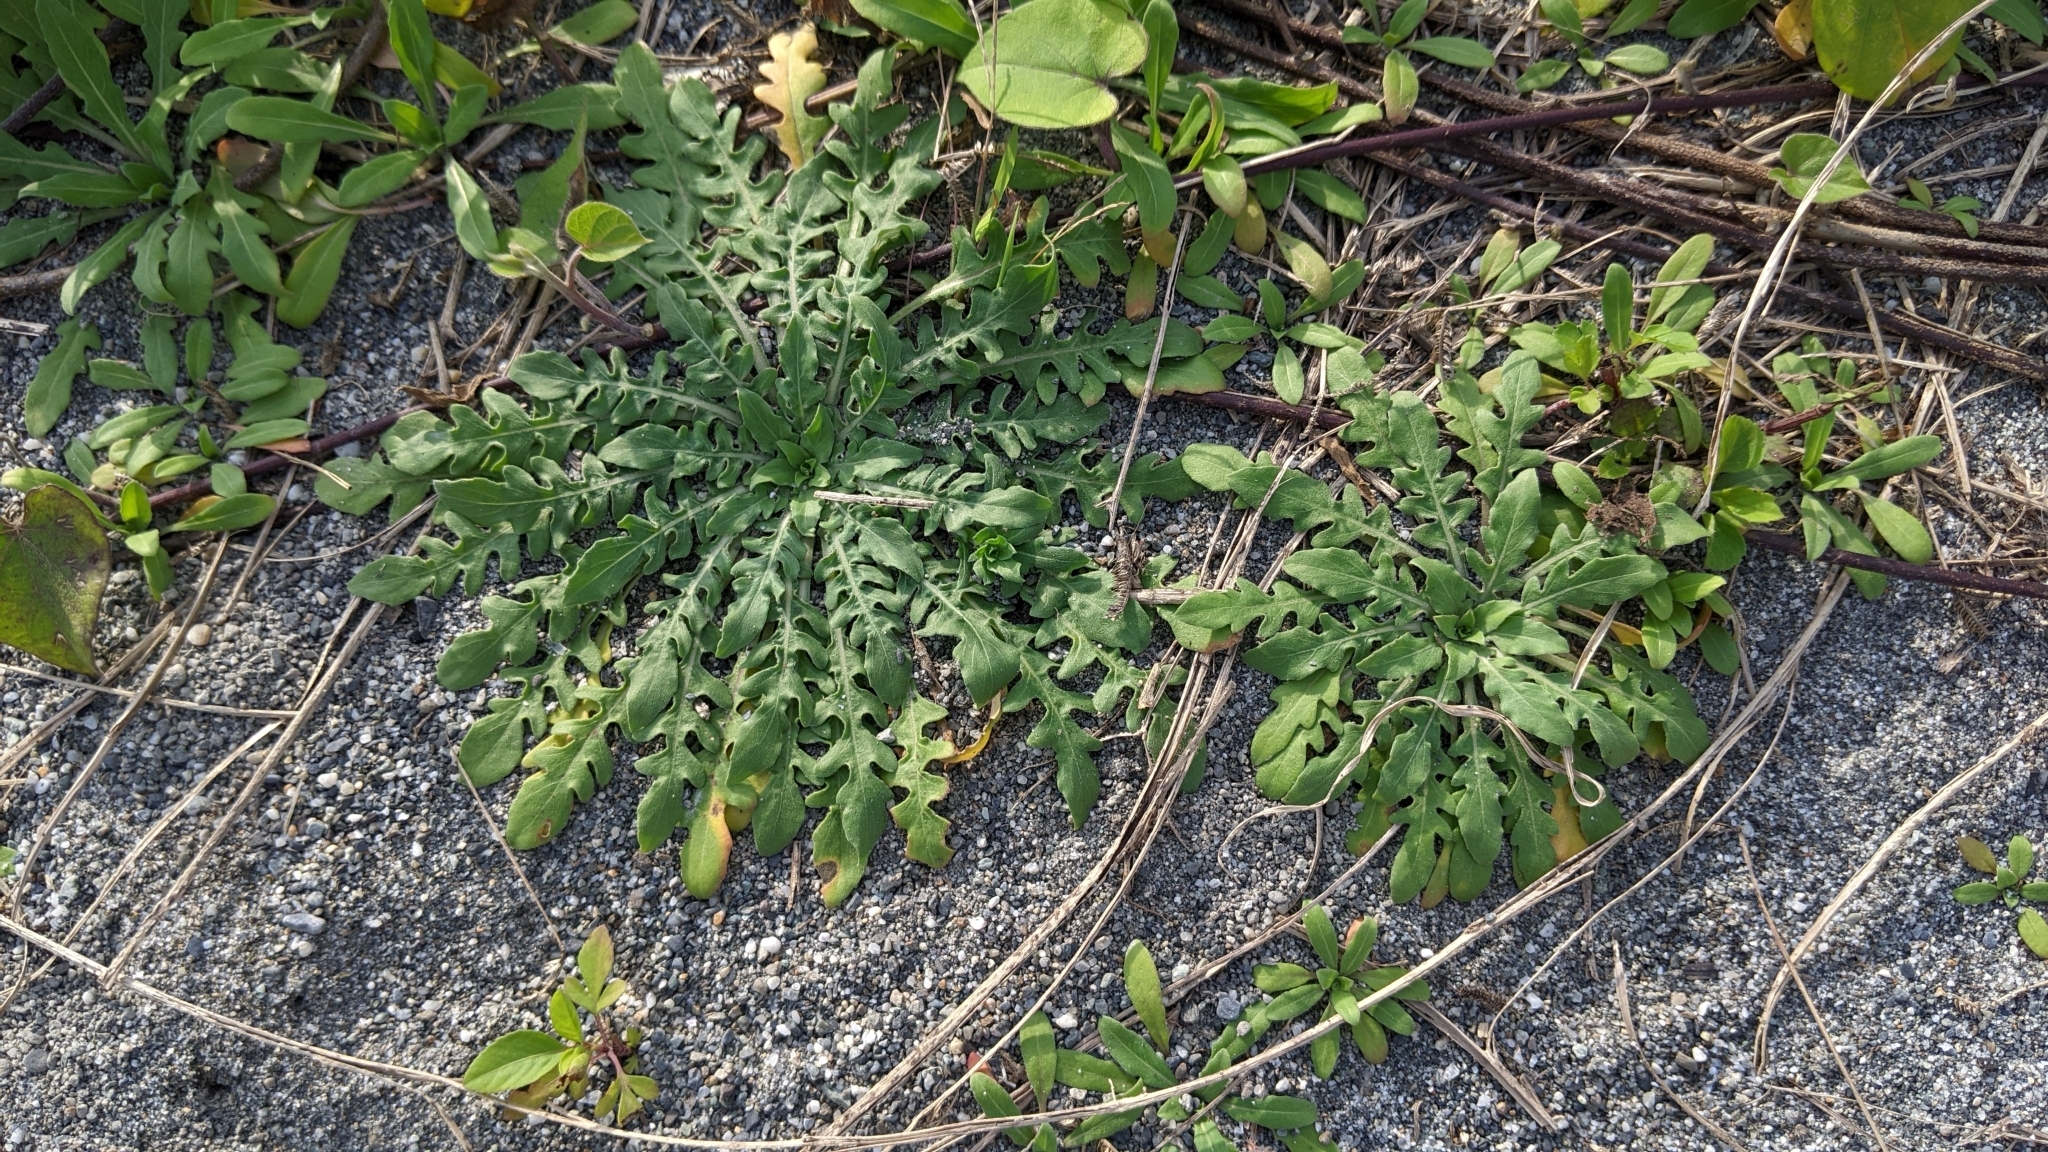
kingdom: Plantae
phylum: Tracheophyta
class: Magnoliopsida
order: Myrtales
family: Onagraceae
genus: Oenothera
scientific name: Oenothera laciniata
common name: Cut-leaved evening-primrose
